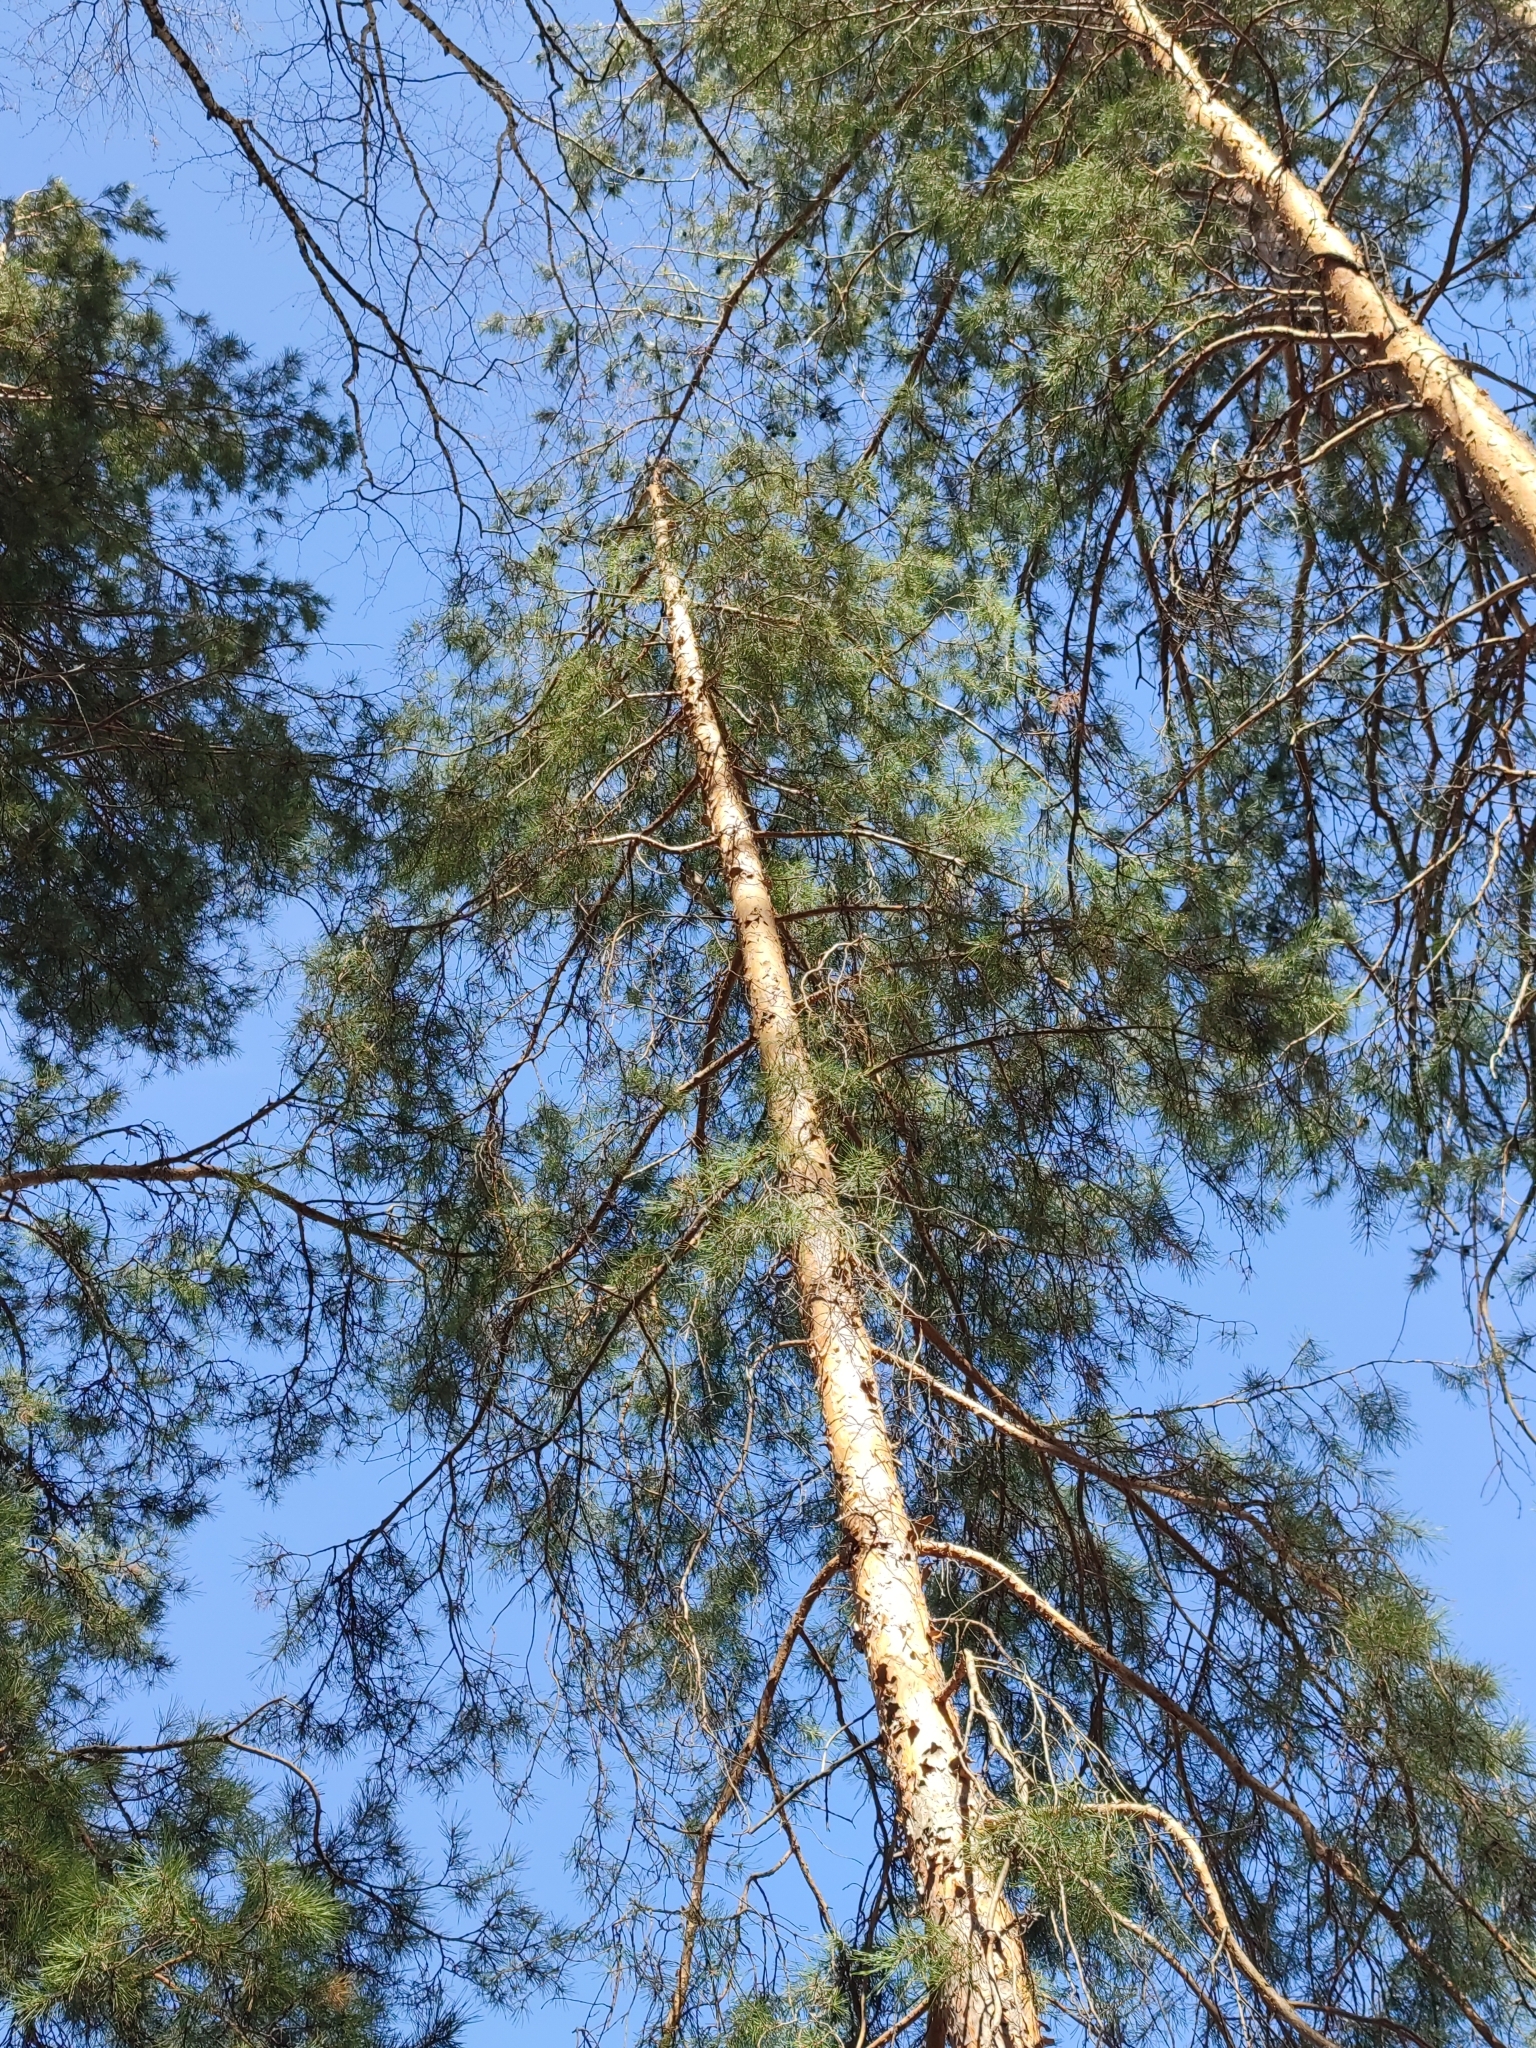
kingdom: Plantae
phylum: Tracheophyta
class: Pinopsida
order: Pinales
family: Pinaceae
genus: Pinus
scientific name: Pinus sylvestris
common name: Scots pine
